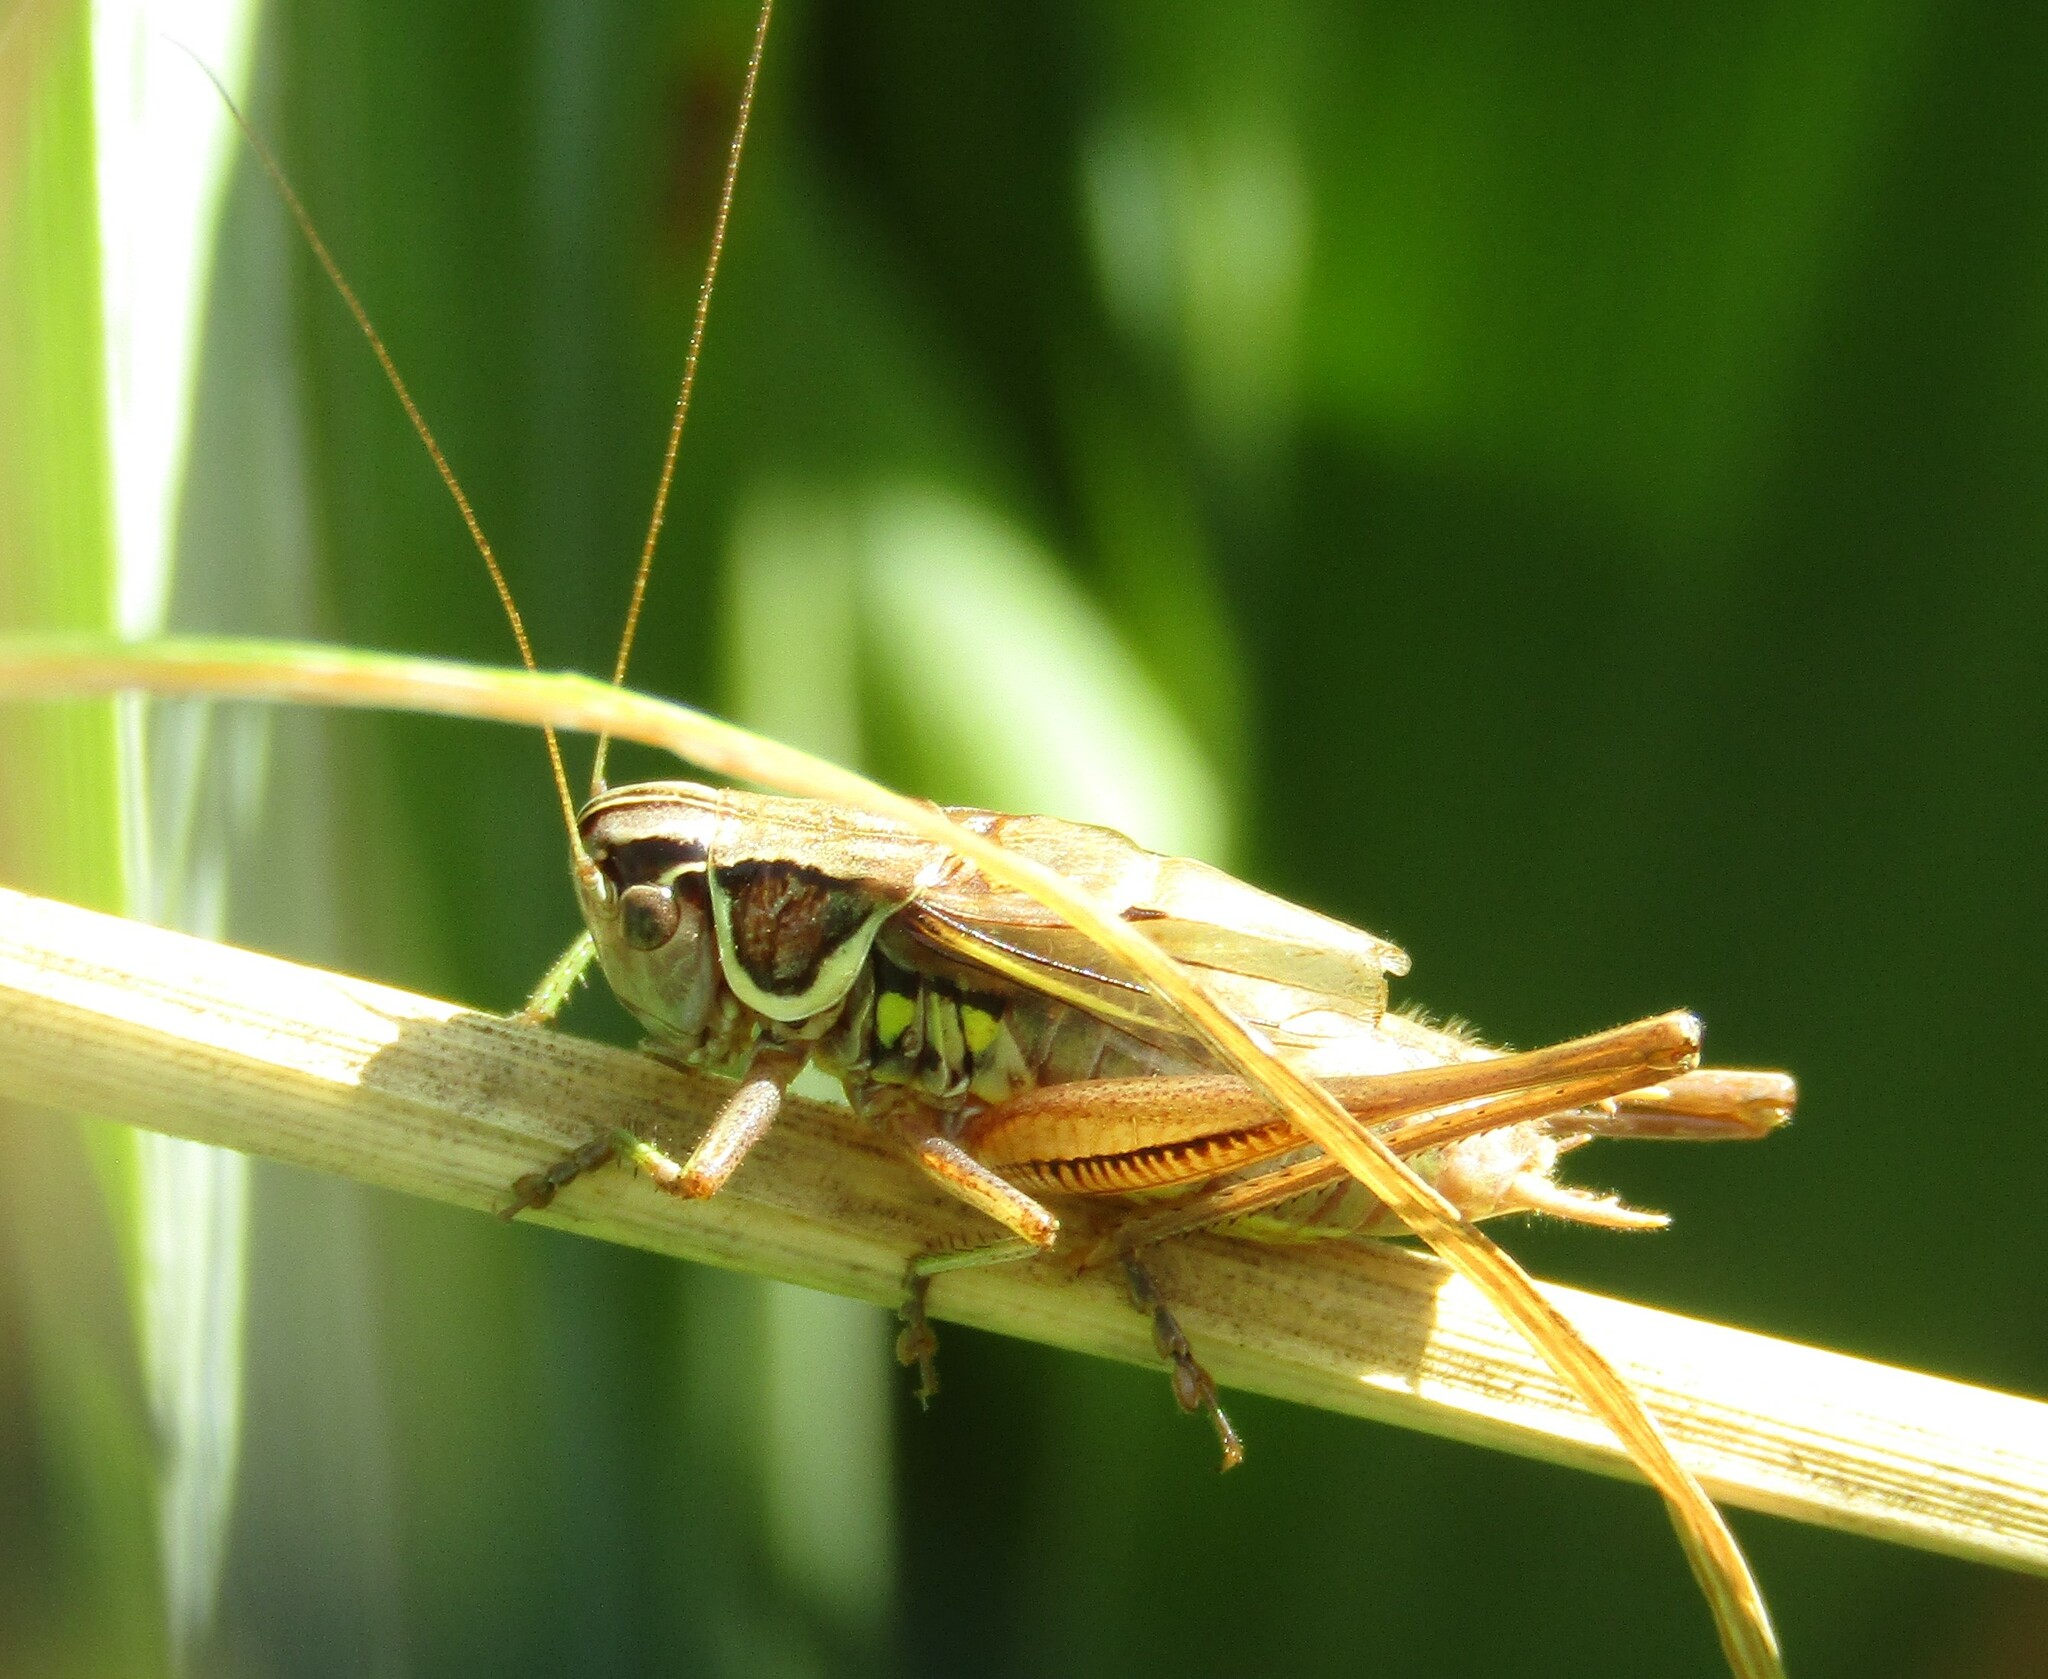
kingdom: Animalia
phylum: Arthropoda
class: Insecta
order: Orthoptera
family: Tettigoniidae
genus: Roeseliana
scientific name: Roeseliana roeselii
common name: Roesel's bush cricket
